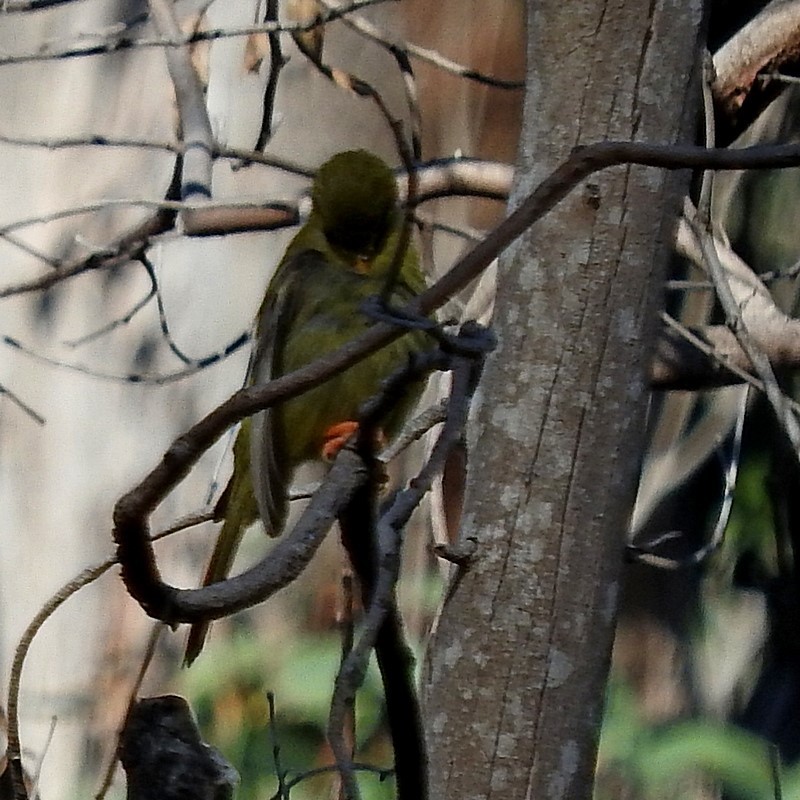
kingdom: Animalia
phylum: Chordata
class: Aves
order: Passeriformes
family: Meliphagidae
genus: Manorina
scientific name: Manorina melanophrys
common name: Bell miner
